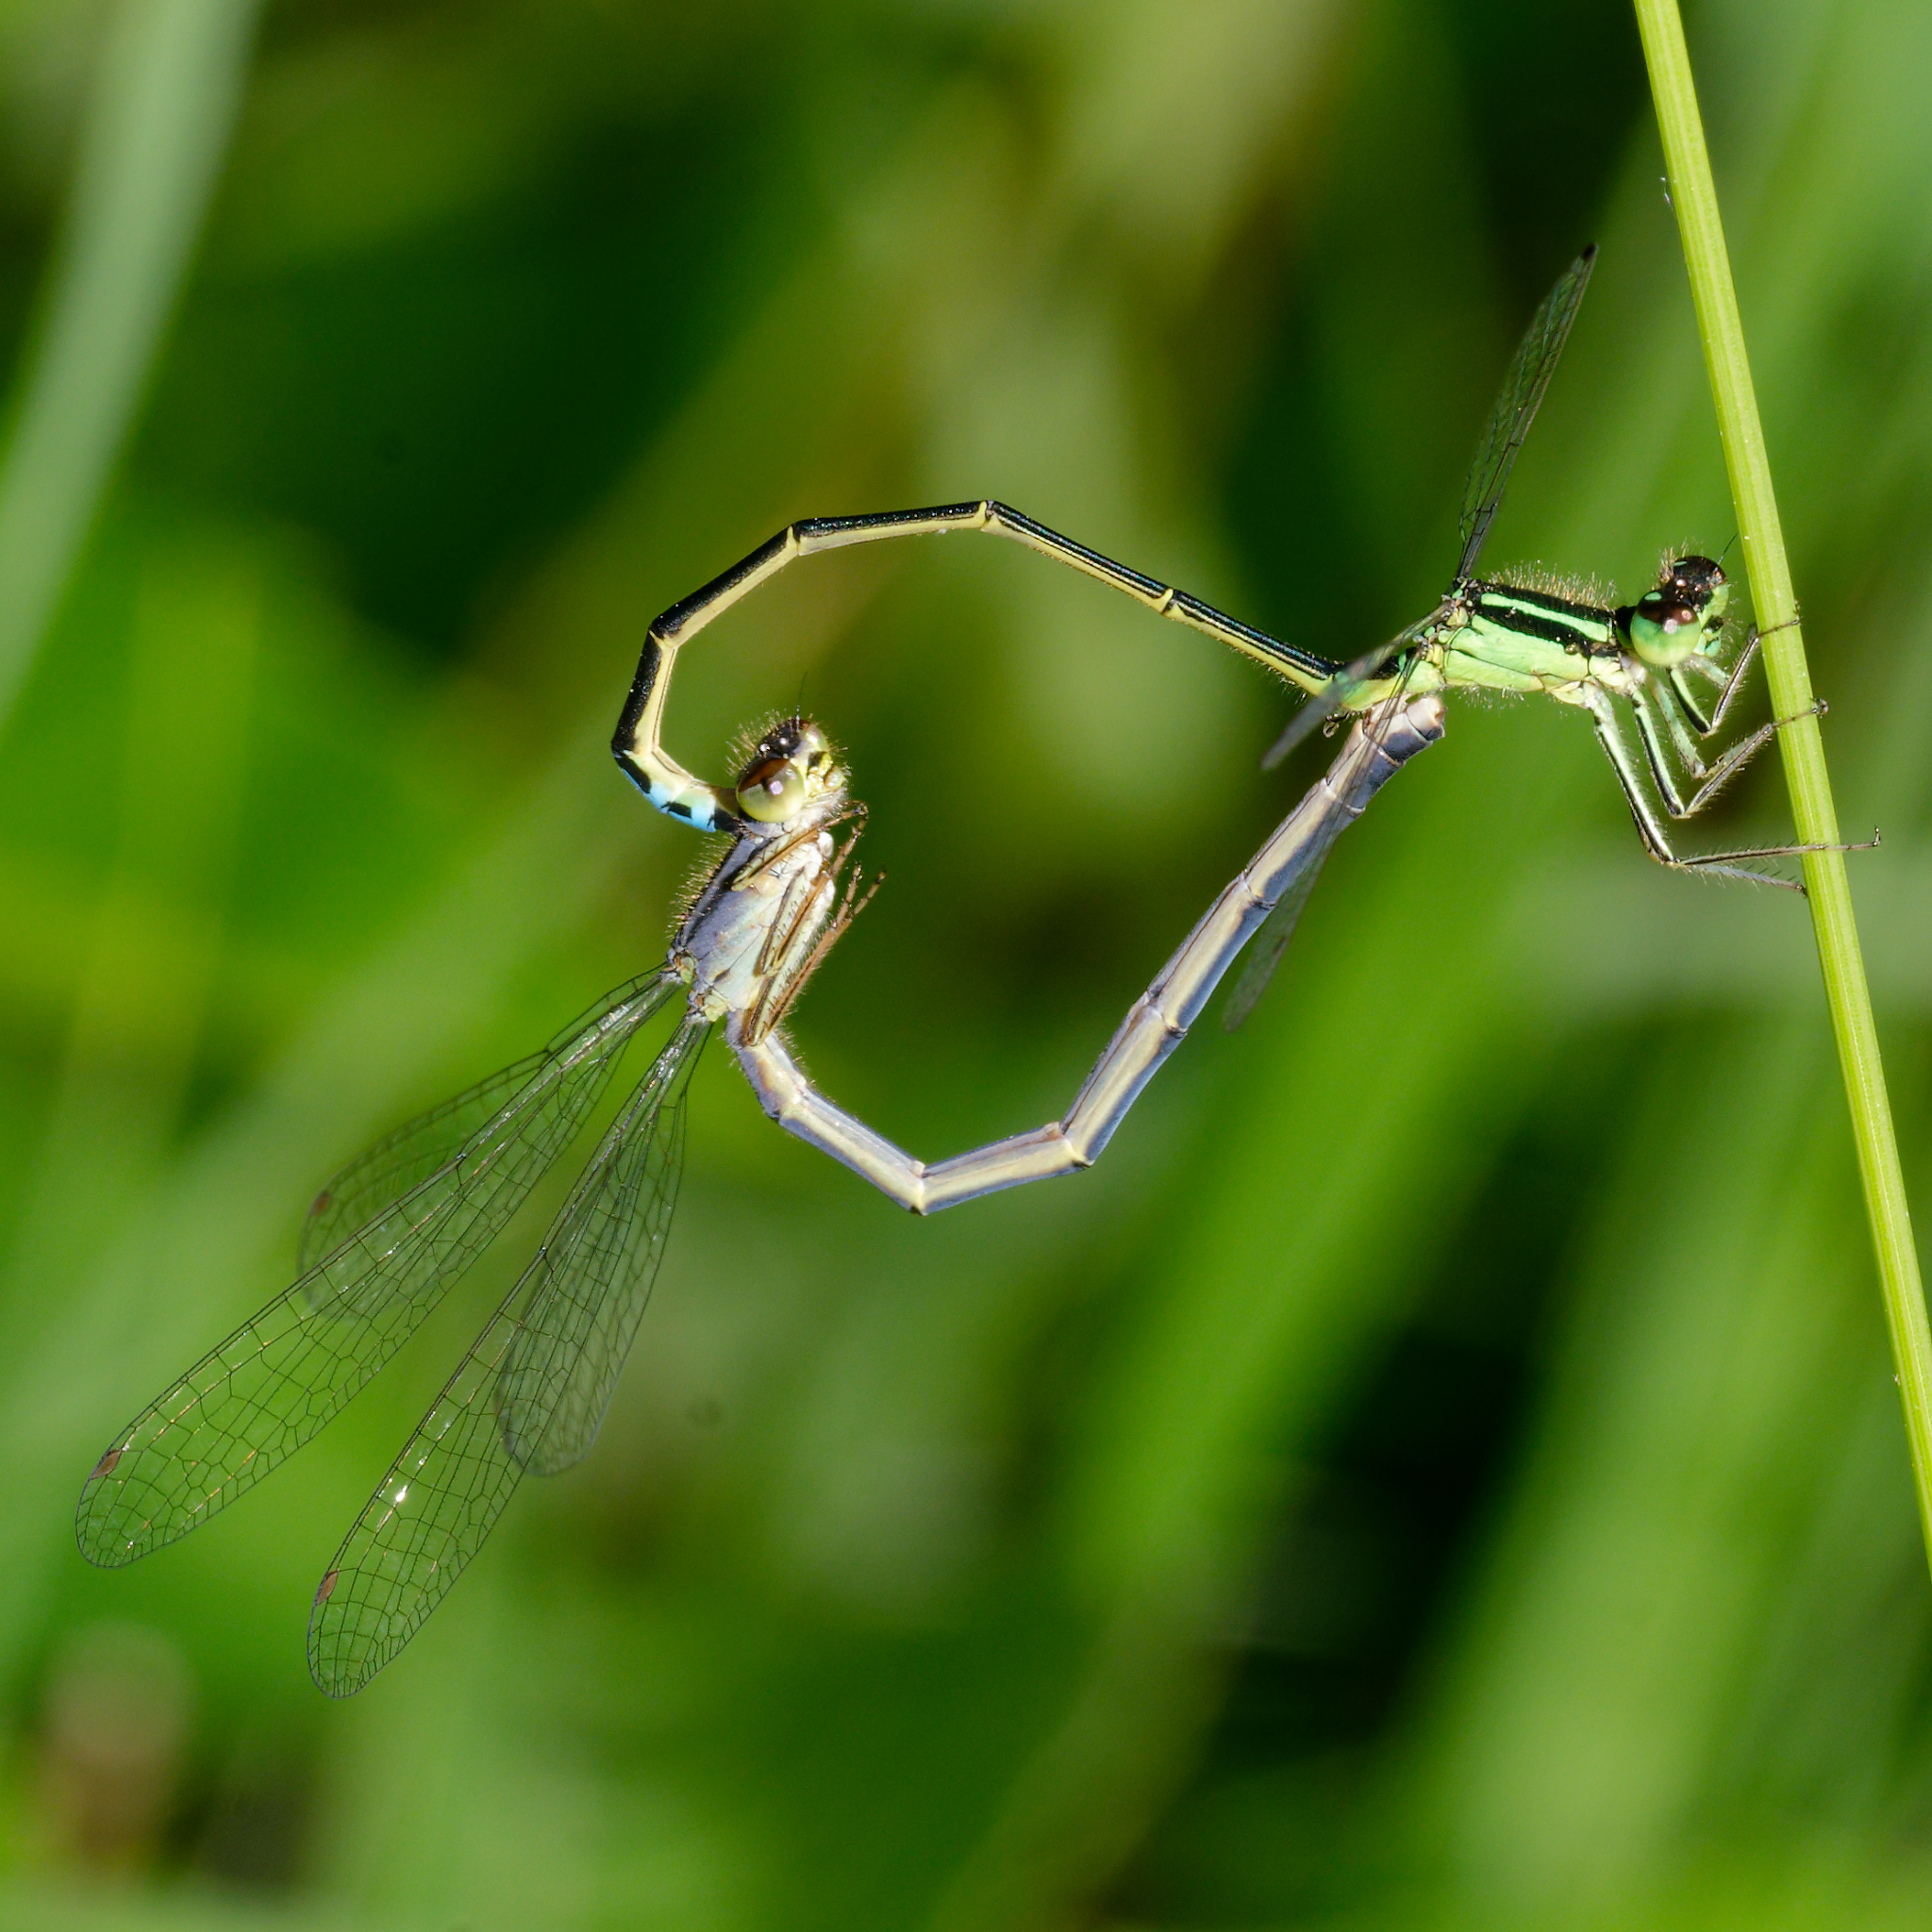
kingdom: Animalia
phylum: Arthropoda
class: Insecta
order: Odonata
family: Coenagrionidae
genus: Ischnura
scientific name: Ischnura verticalis
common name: Eastern forktail
